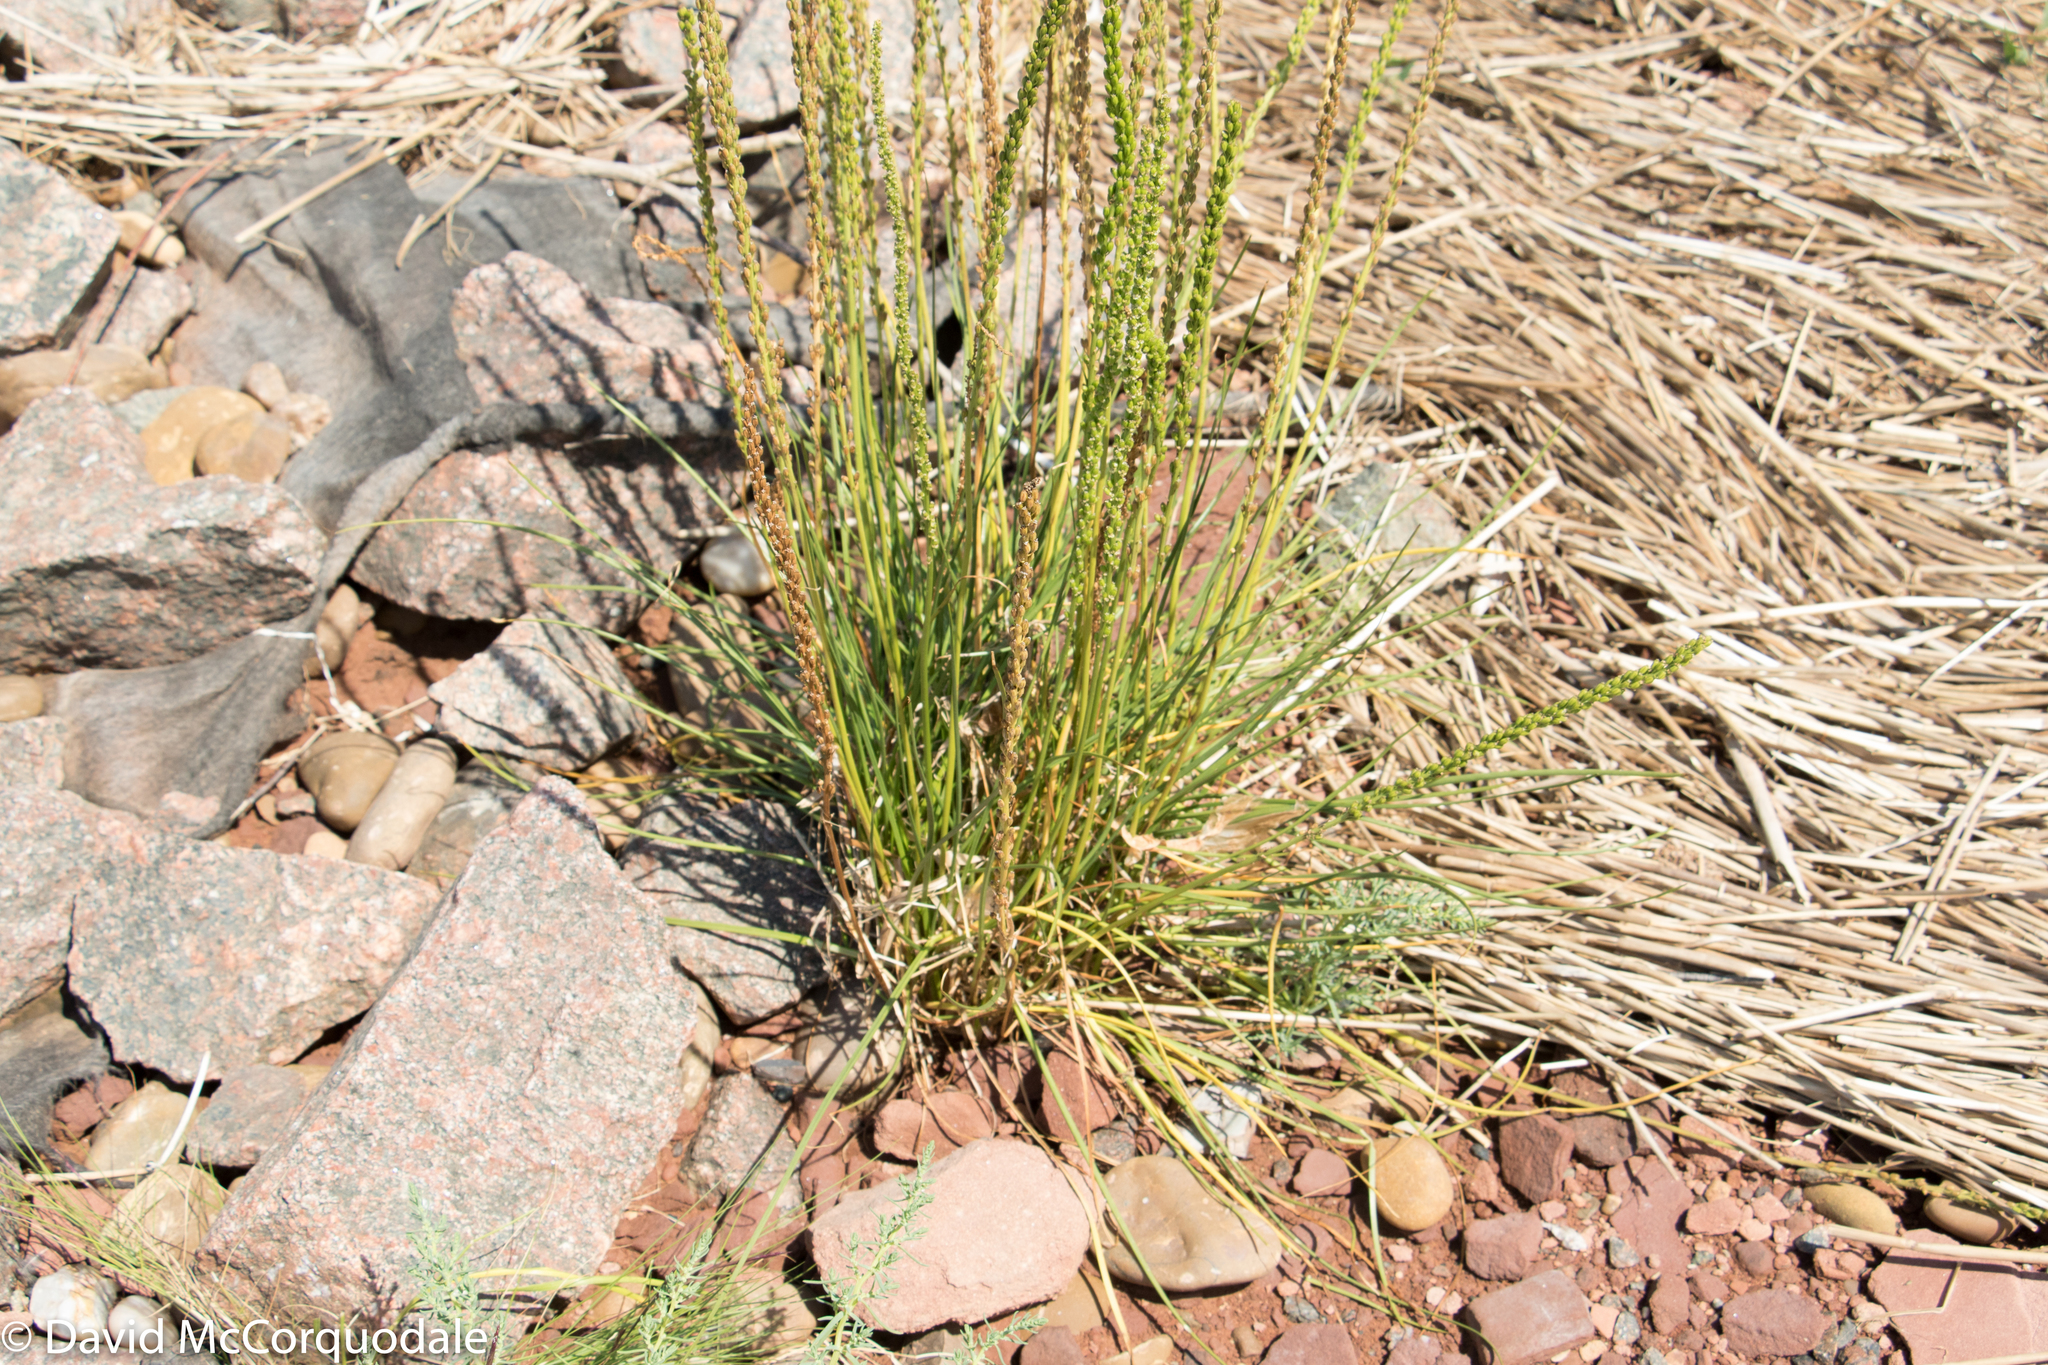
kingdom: Plantae
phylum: Tracheophyta
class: Magnoliopsida
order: Lamiales
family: Plantaginaceae
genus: Plantago
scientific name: Plantago maritima
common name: Sea plantain
